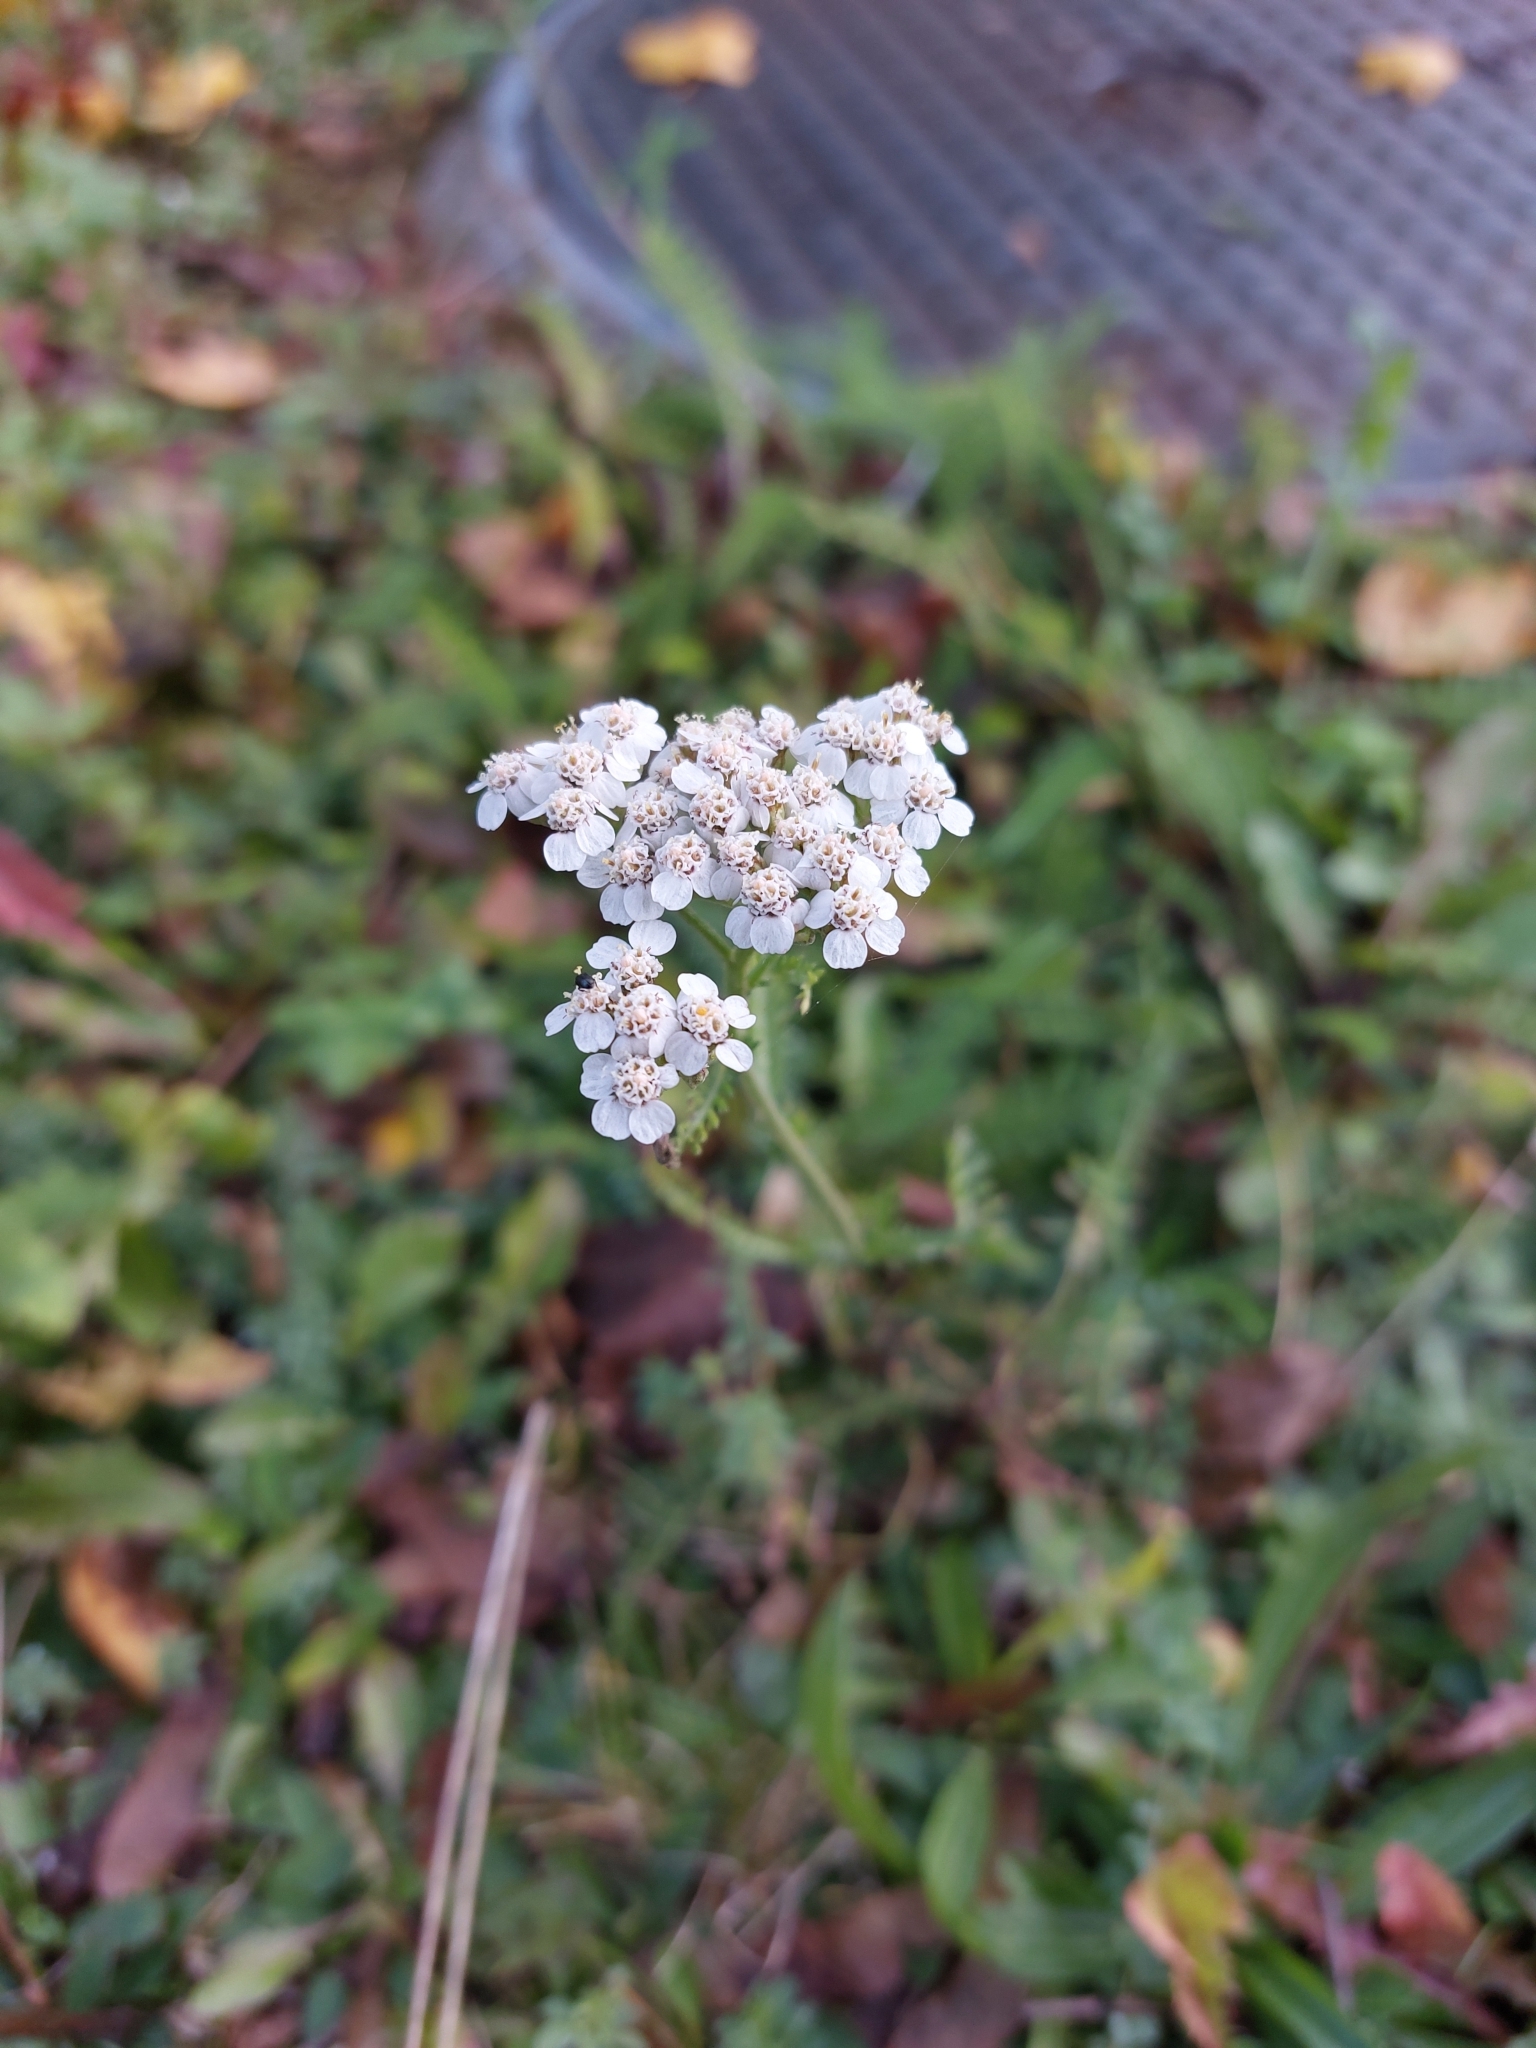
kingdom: Plantae
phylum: Tracheophyta
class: Magnoliopsida
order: Asterales
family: Asteraceae
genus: Achillea
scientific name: Achillea millefolium
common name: Yarrow
